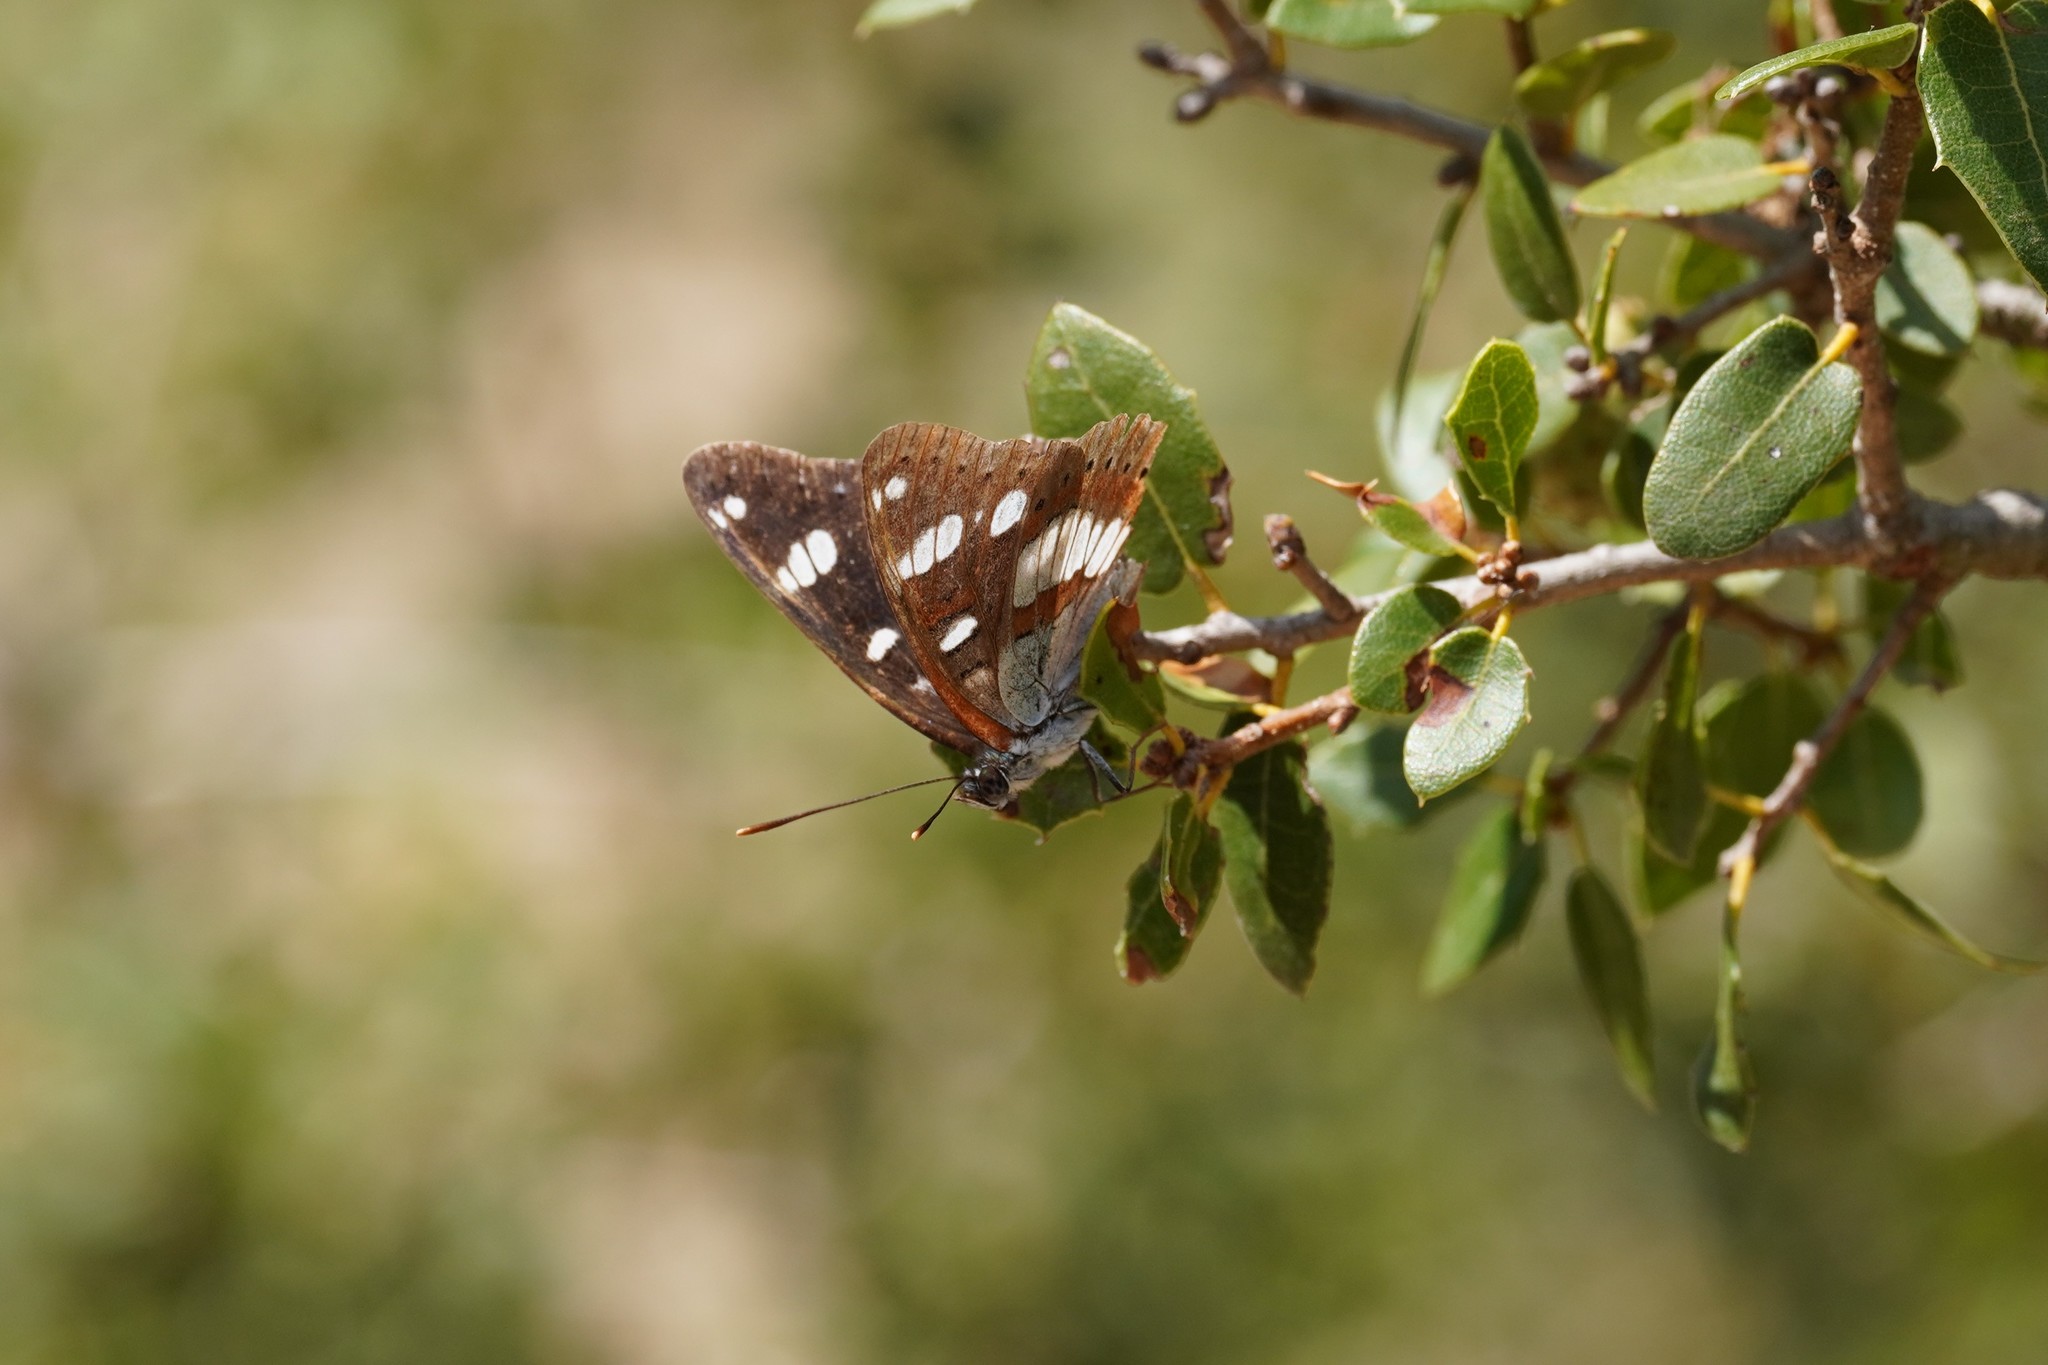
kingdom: Animalia
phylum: Arthropoda
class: Insecta
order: Lepidoptera
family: Nymphalidae
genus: Limenitis
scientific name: Limenitis reducta
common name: Southern white admiral
